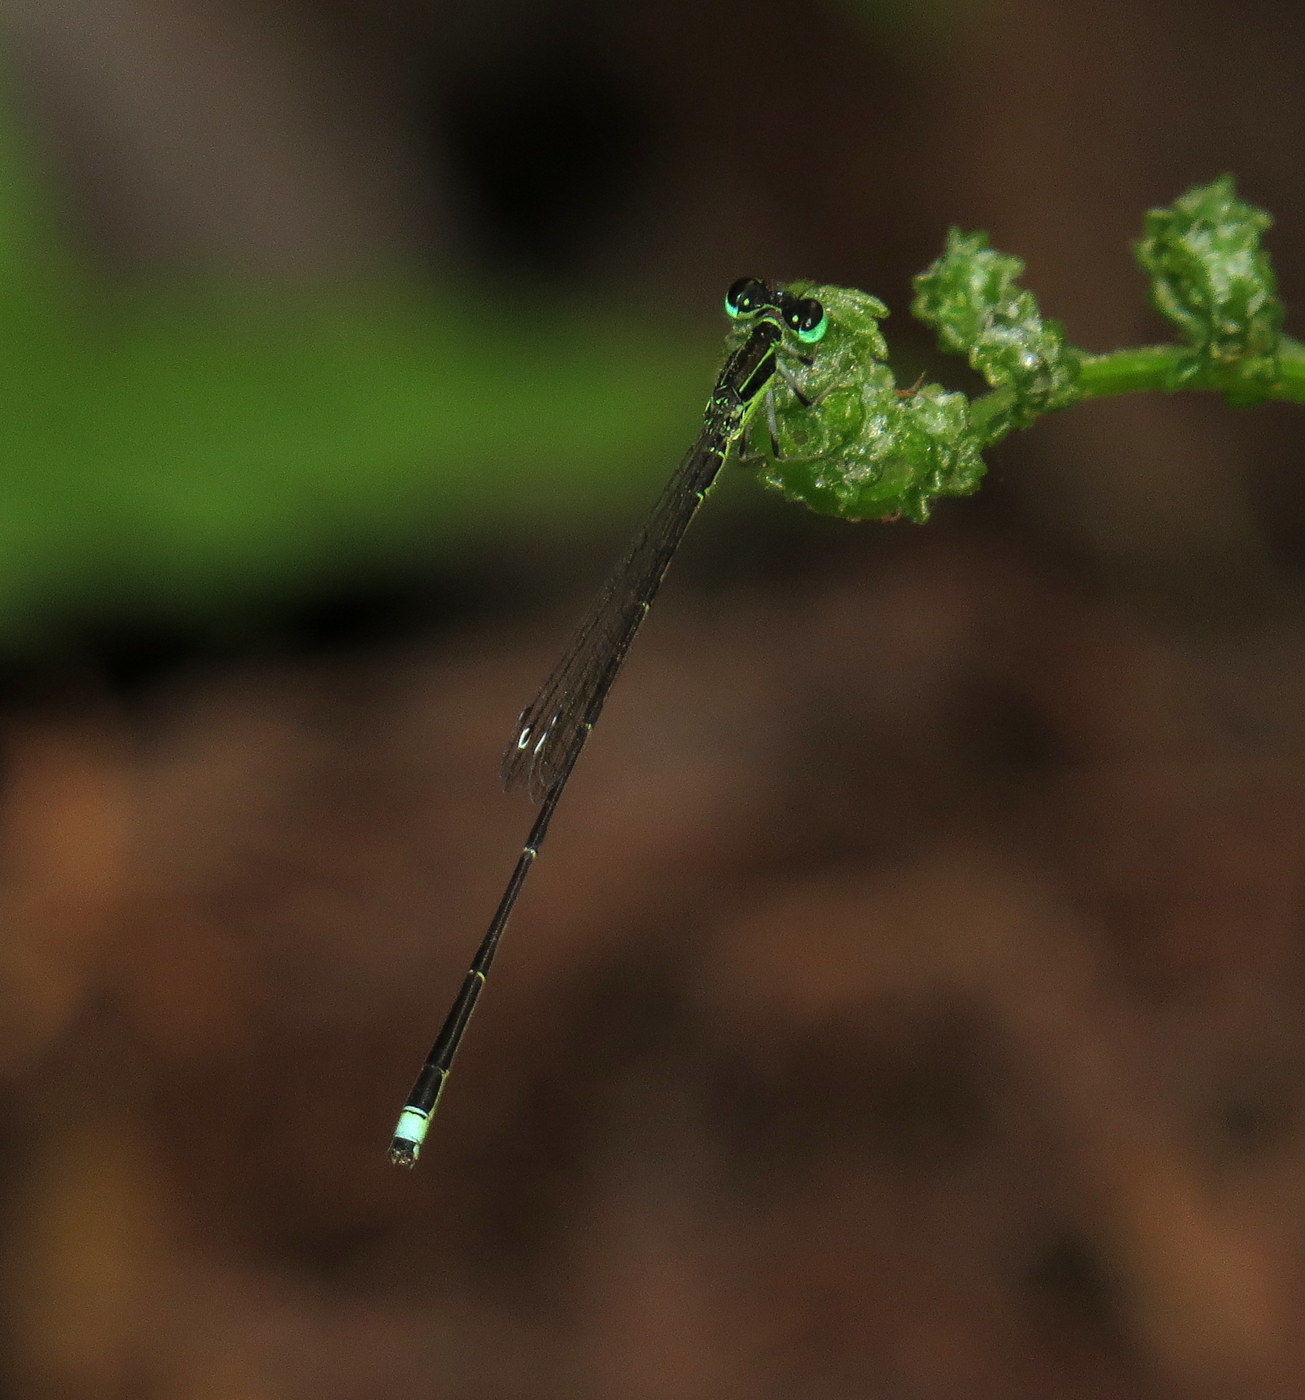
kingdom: Animalia
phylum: Arthropoda
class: Insecta
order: Odonata
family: Coenagrionidae
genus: Ischnura
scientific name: Ischnura prognata
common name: Furtive forktail
